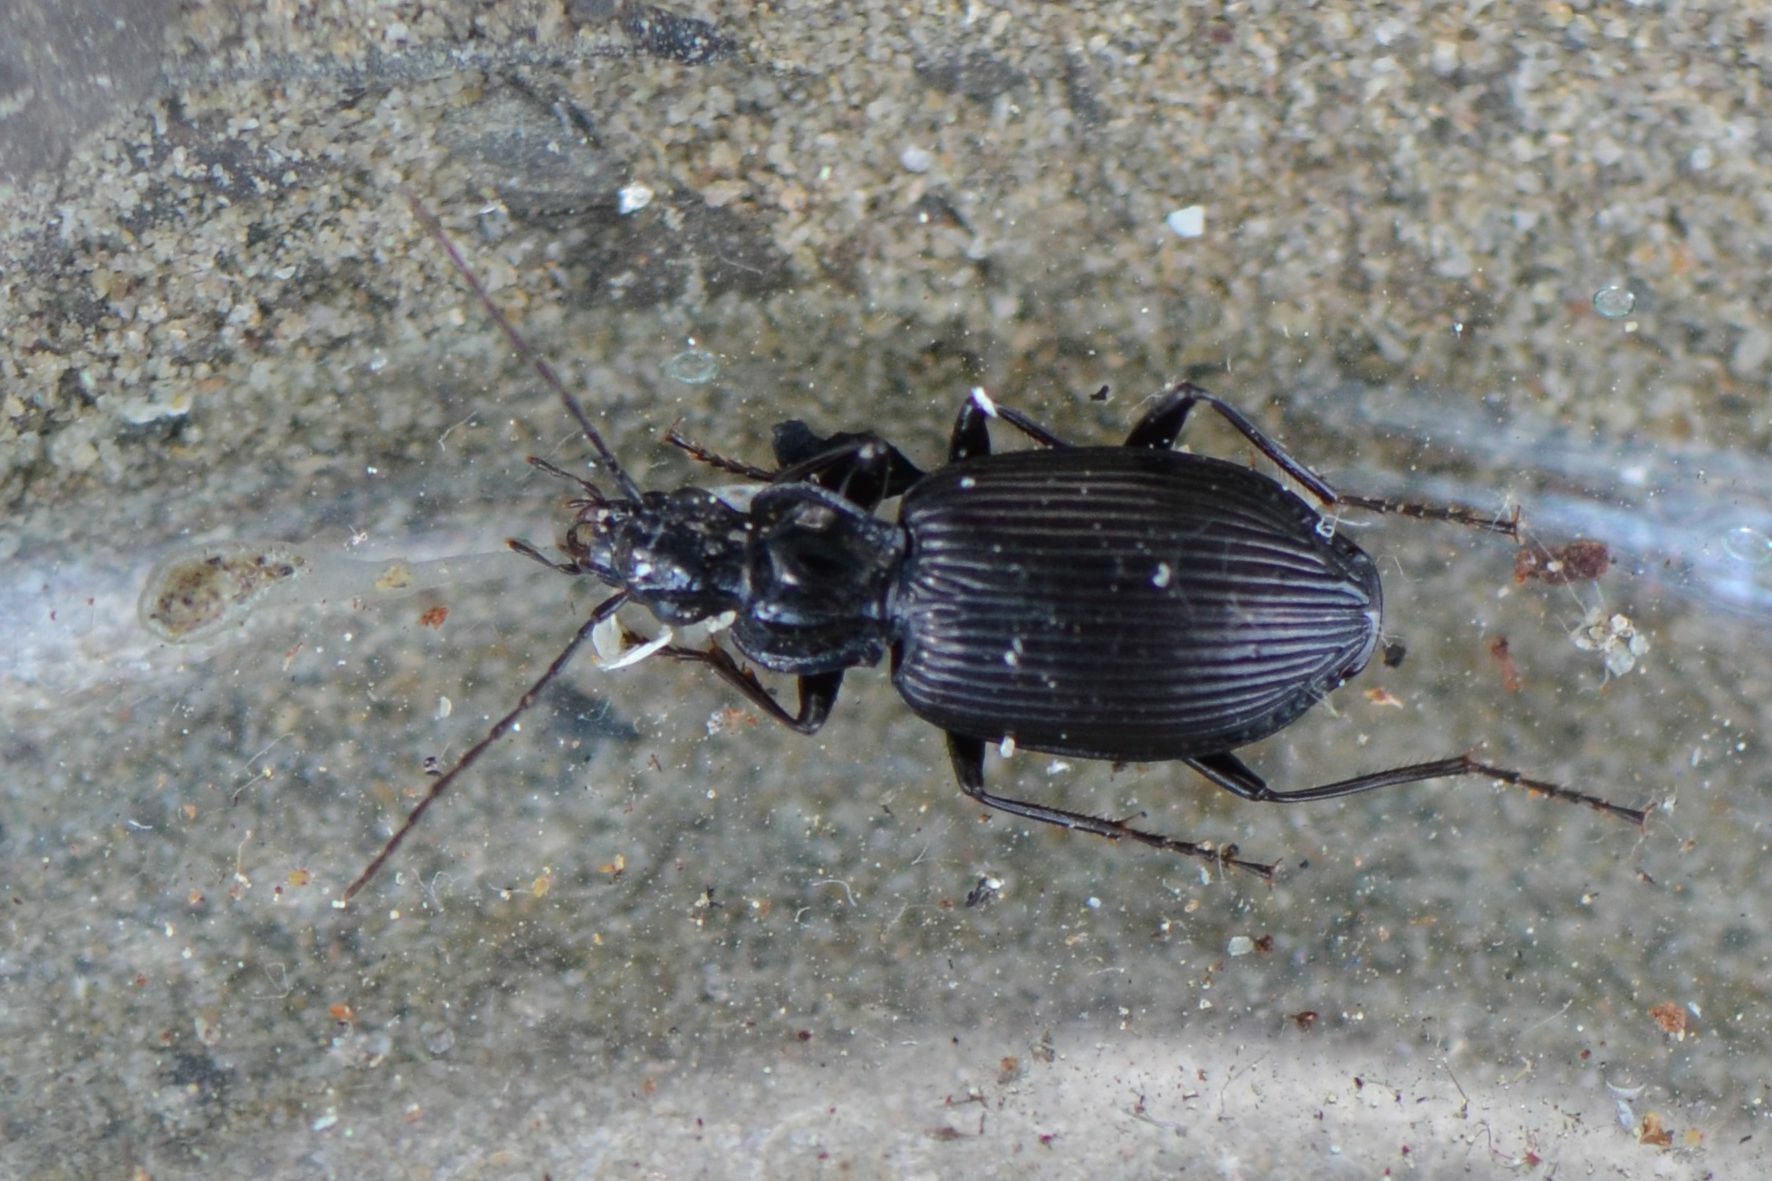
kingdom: Animalia
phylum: Arthropoda
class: Insecta
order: Coleoptera
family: Carabidae
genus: Platynus
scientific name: Platynus assimilis
